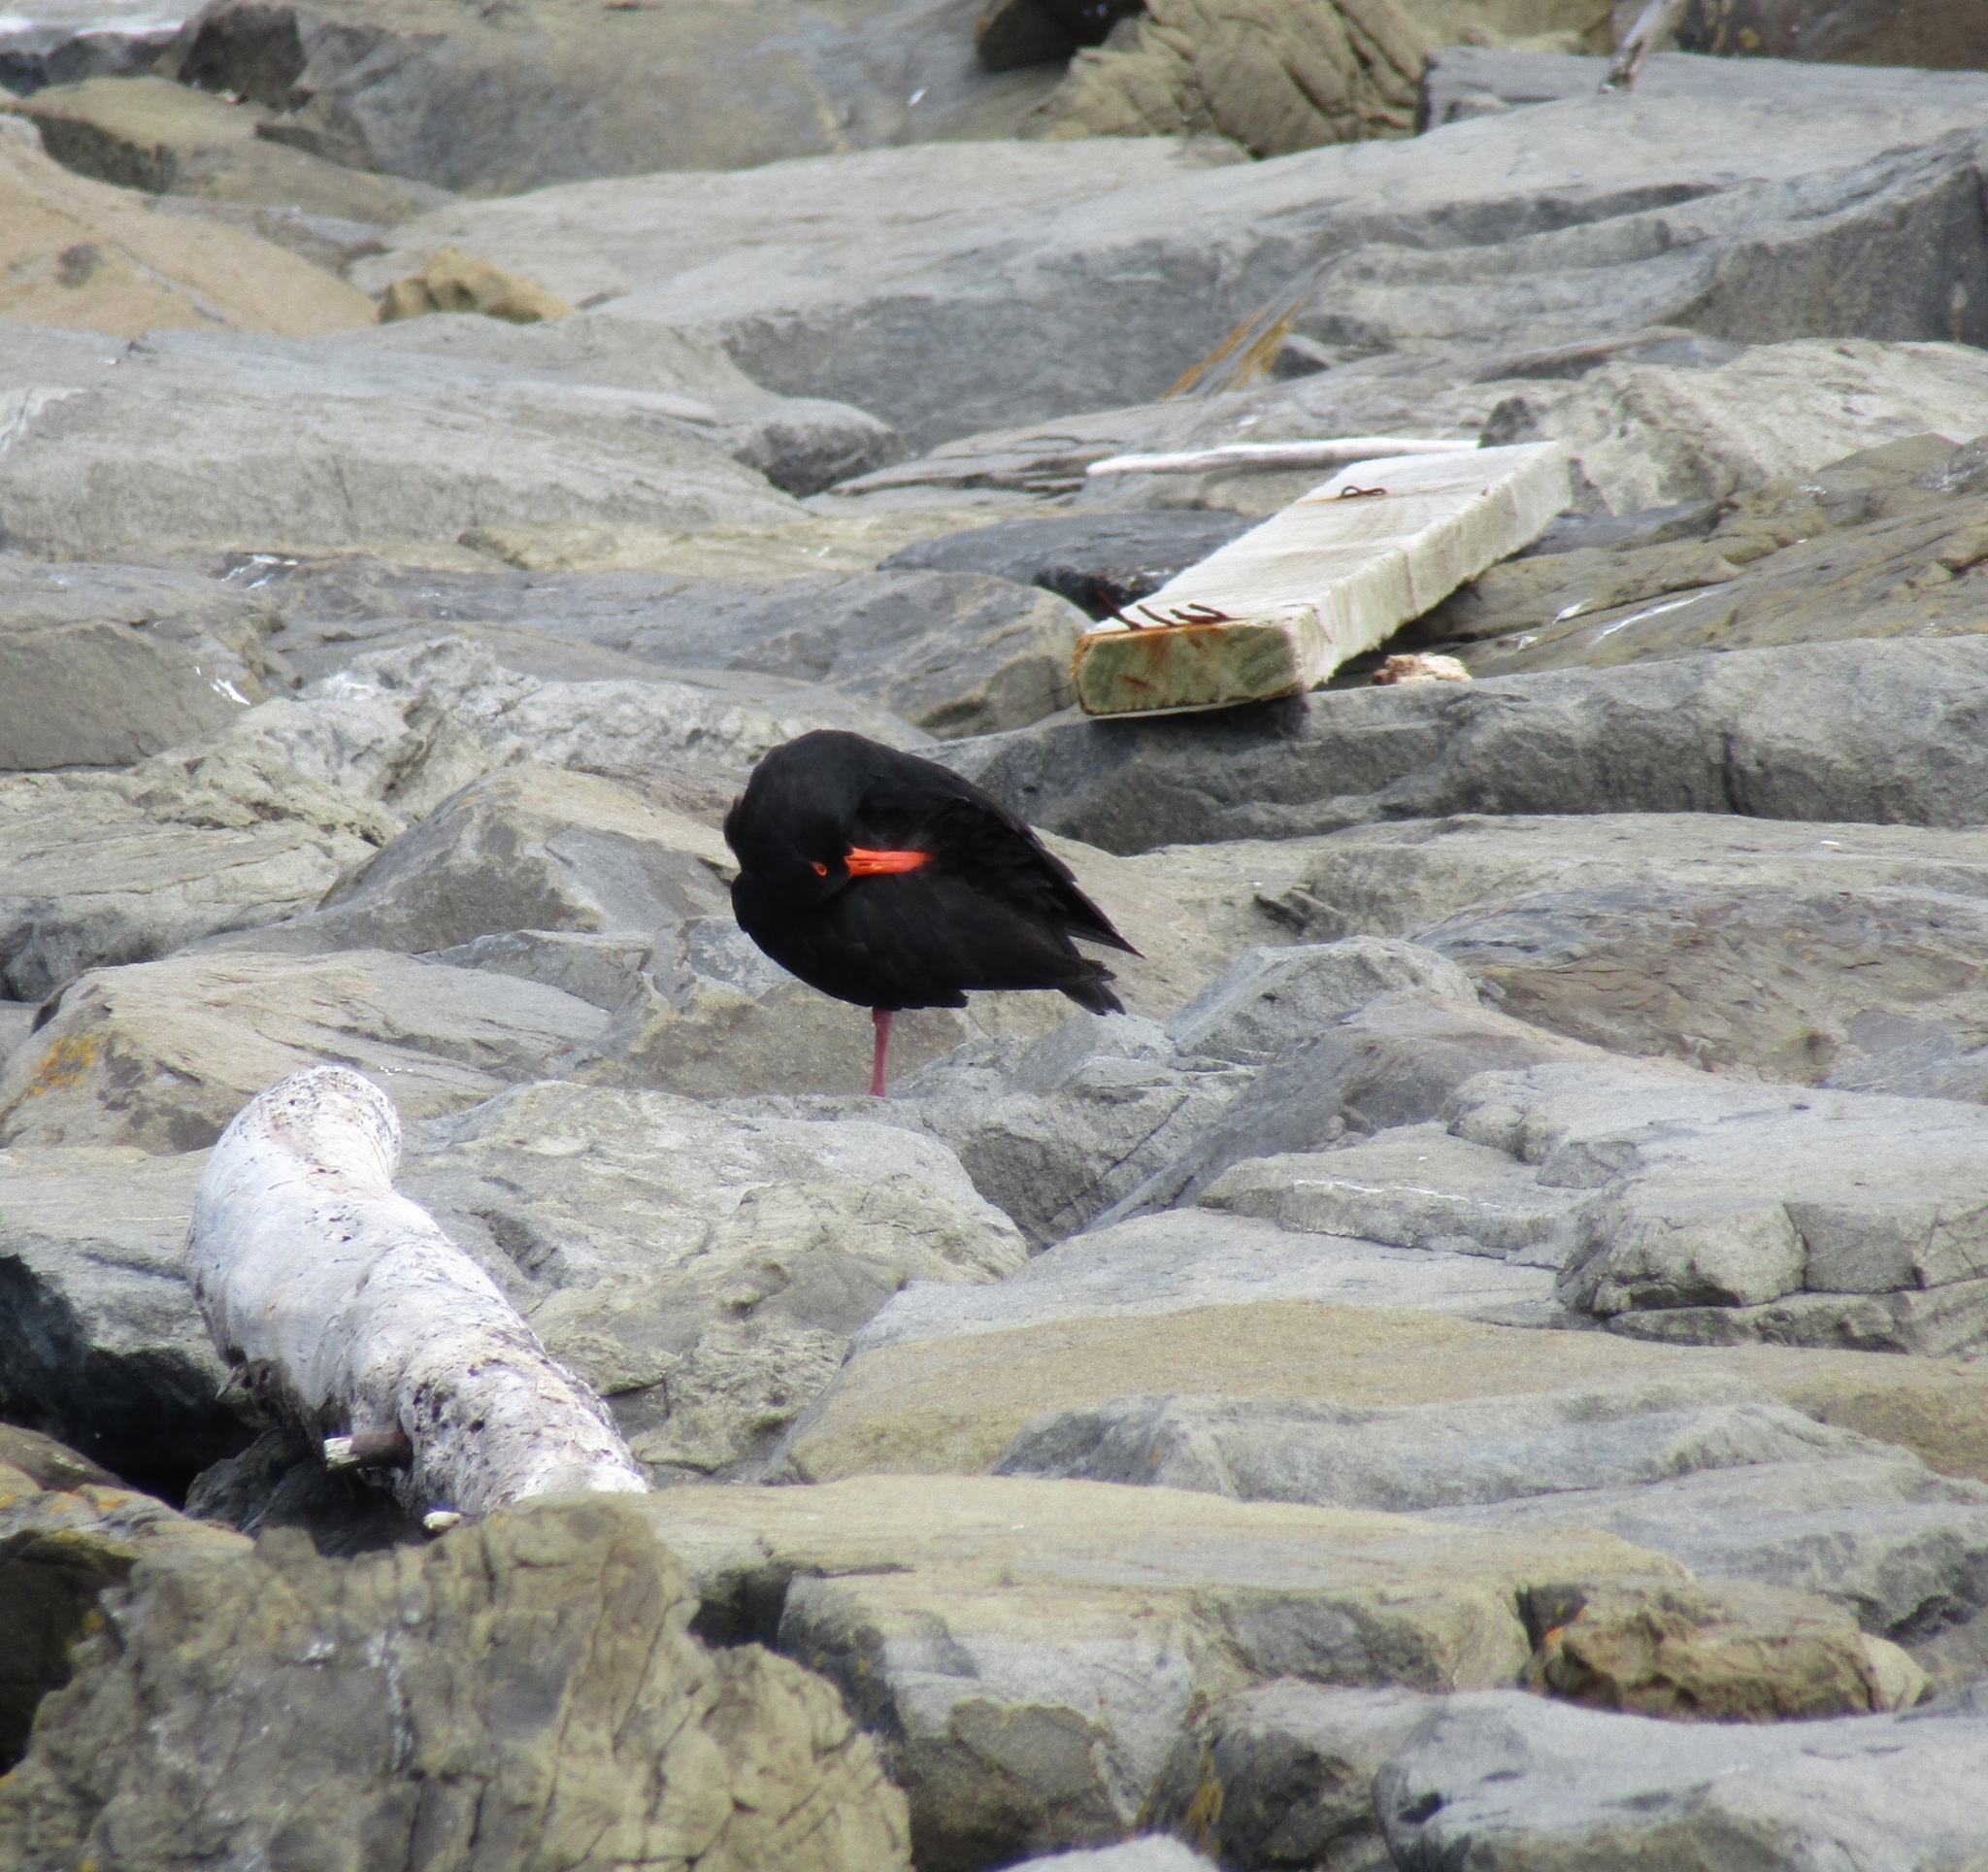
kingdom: Animalia
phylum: Chordata
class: Aves
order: Charadriiformes
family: Haematopodidae
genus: Haematopus
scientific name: Haematopus unicolor
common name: Variable oystercatcher
